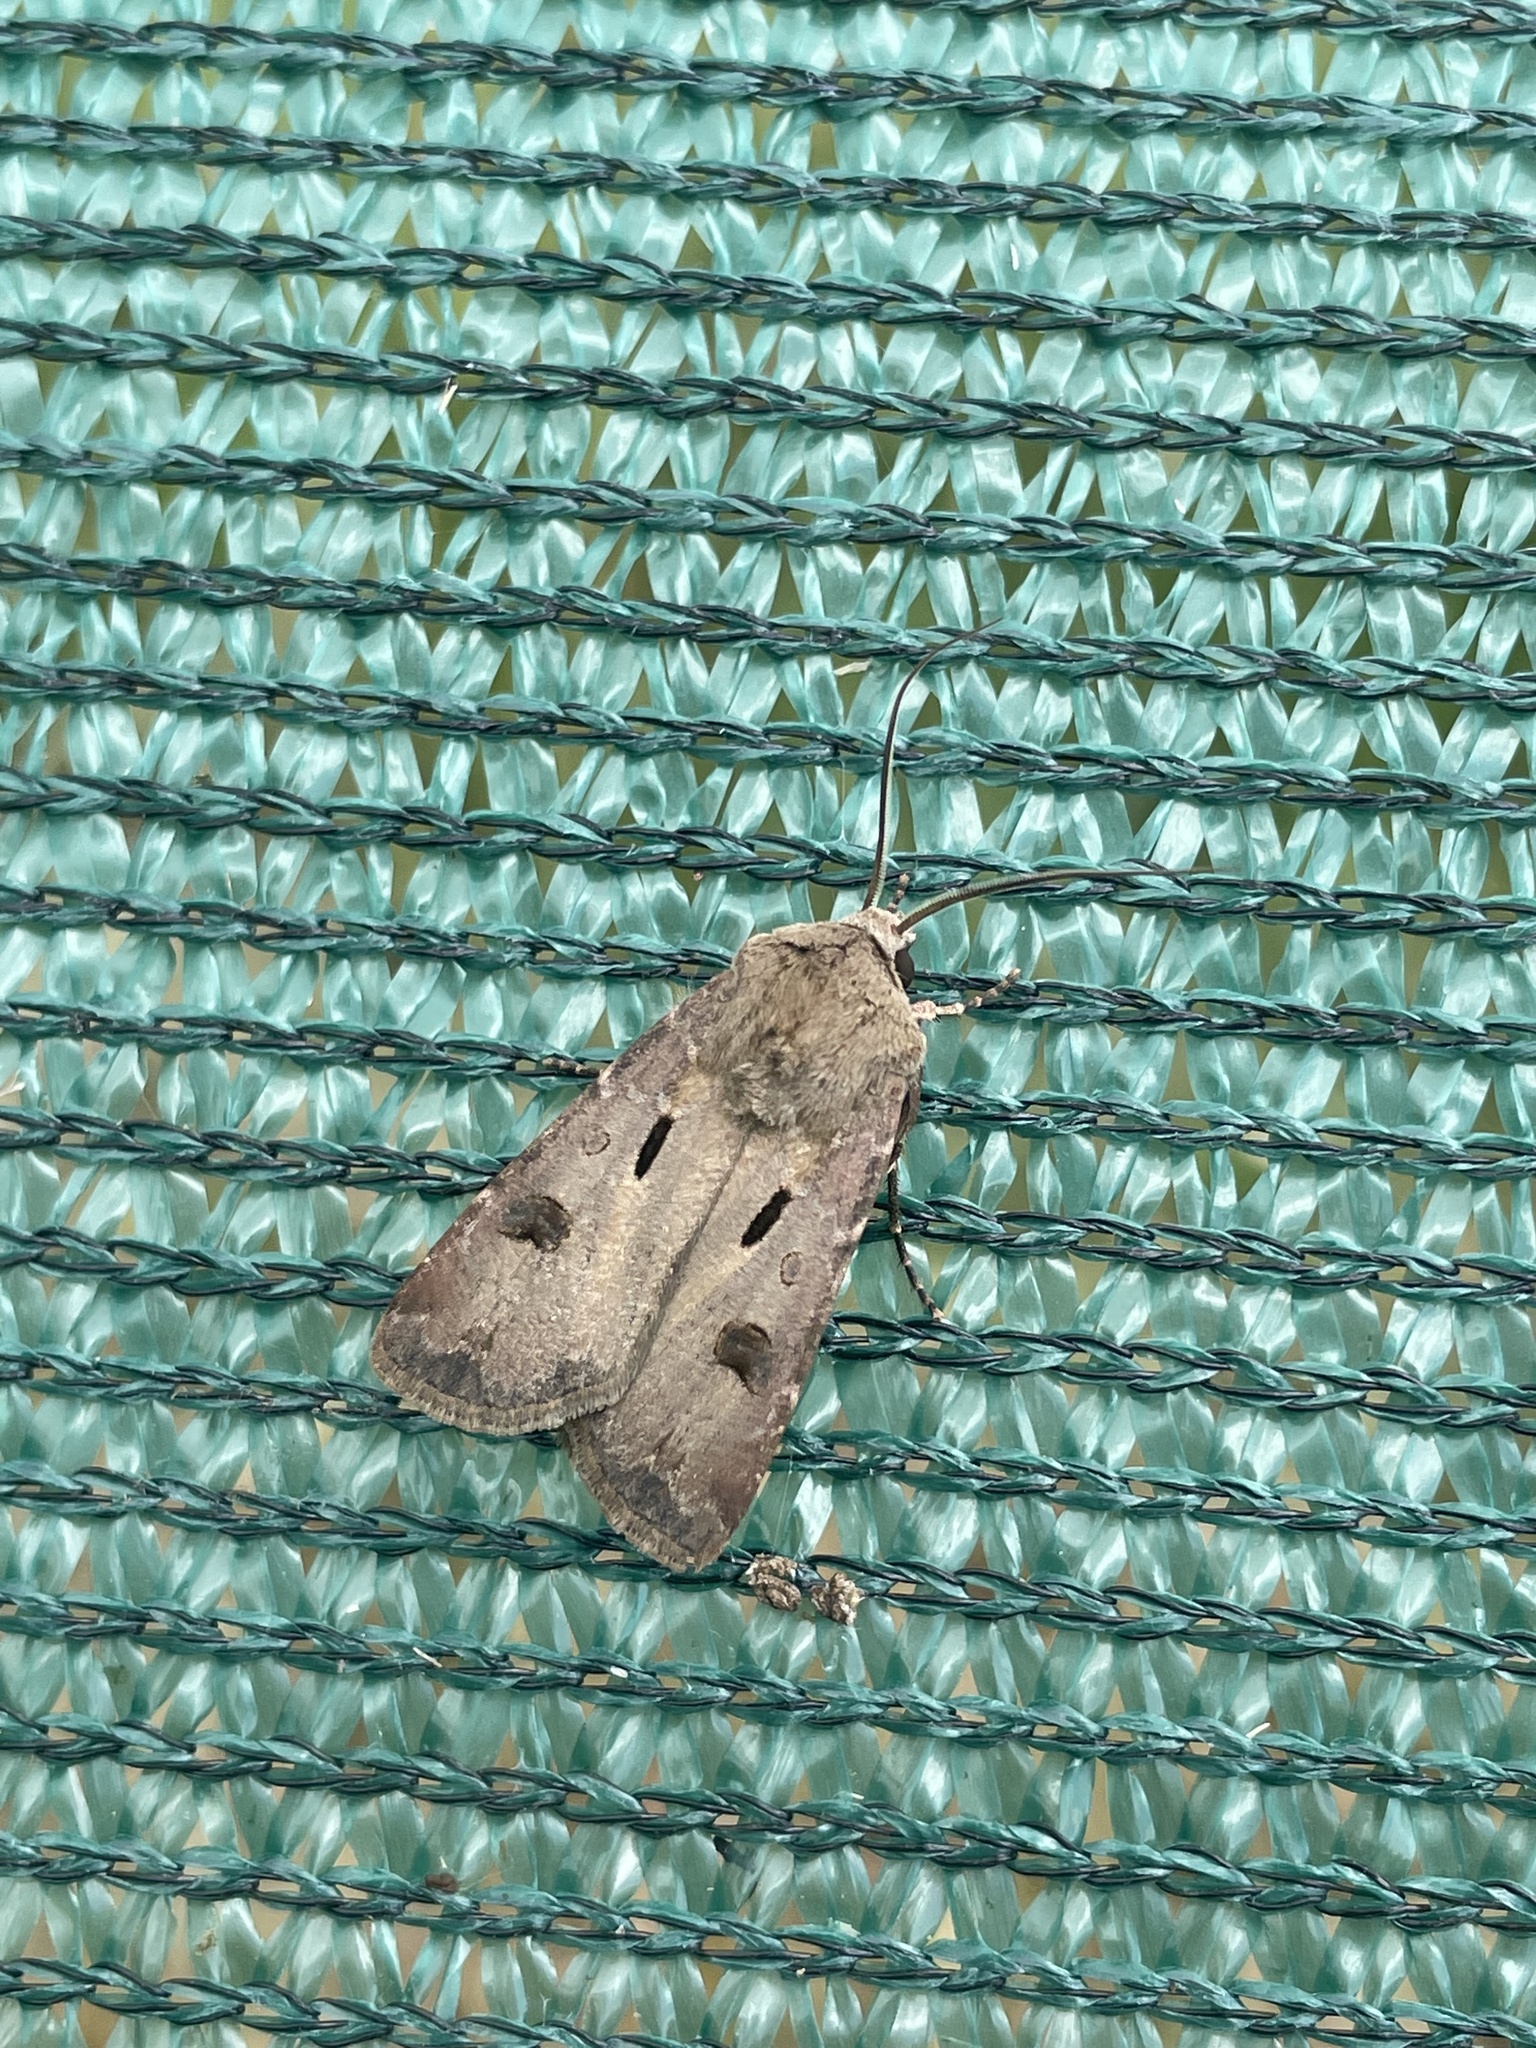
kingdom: Animalia
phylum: Arthropoda
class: Insecta
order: Lepidoptera
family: Noctuidae
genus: Agrotis
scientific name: Agrotis exclamationis
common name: Heart and dart
